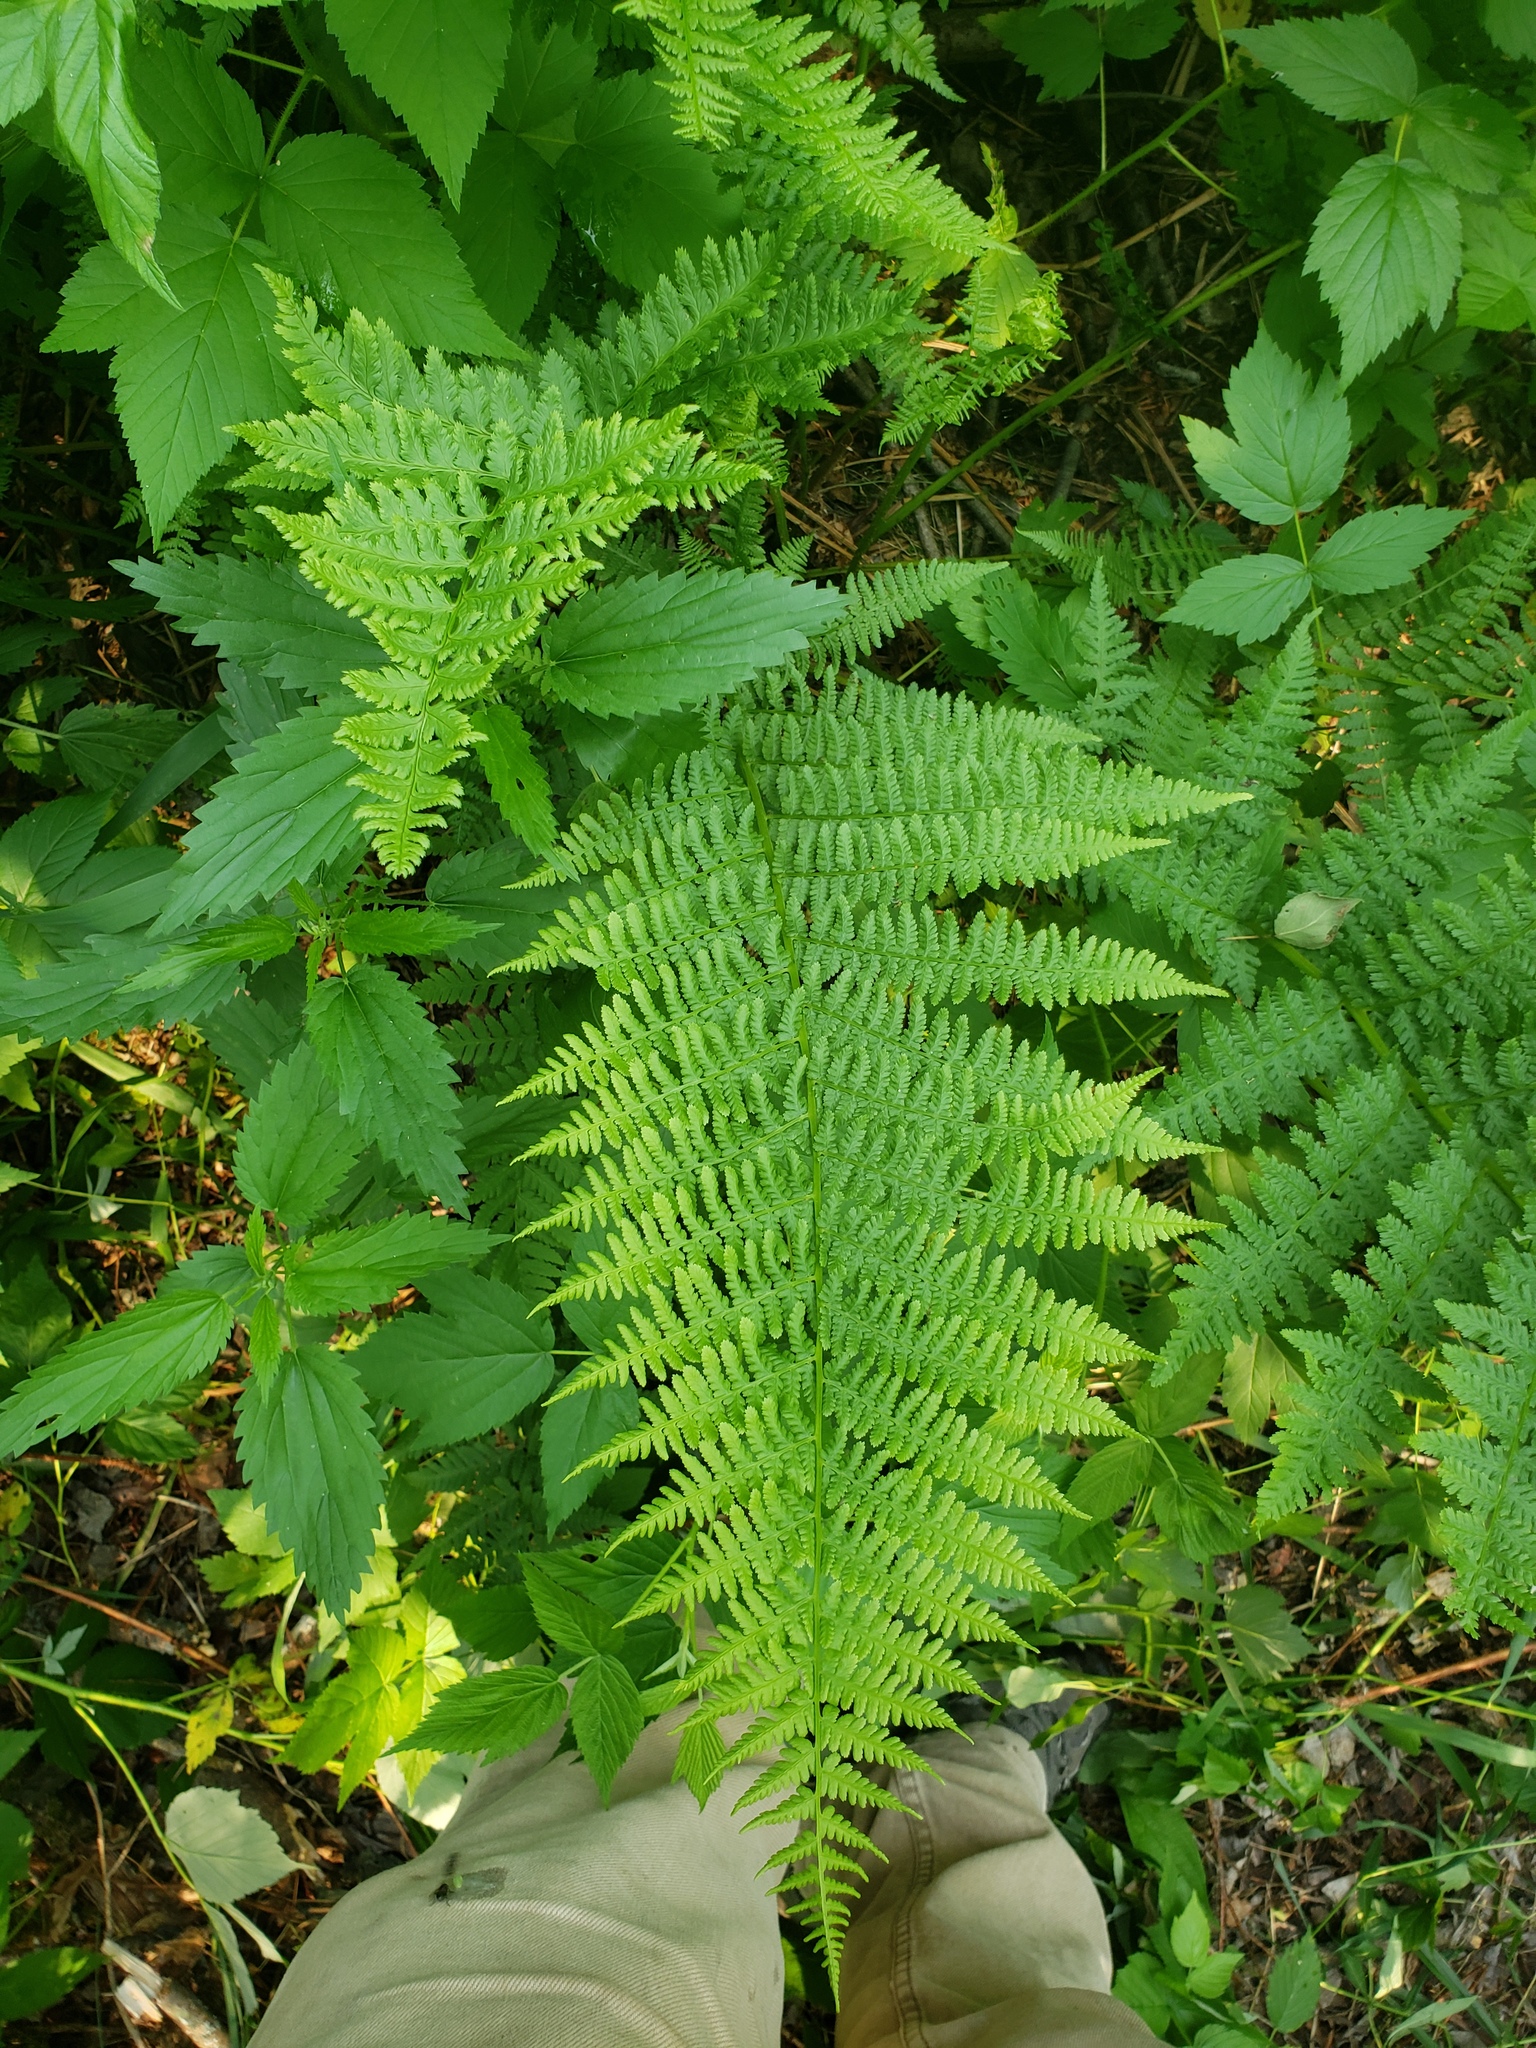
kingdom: Plantae
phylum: Tracheophyta
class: Polypodiopsida
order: Polypodiales
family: Athyriaceae
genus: Athyrium
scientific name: Athyrium angustum
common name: Northern lady fern
